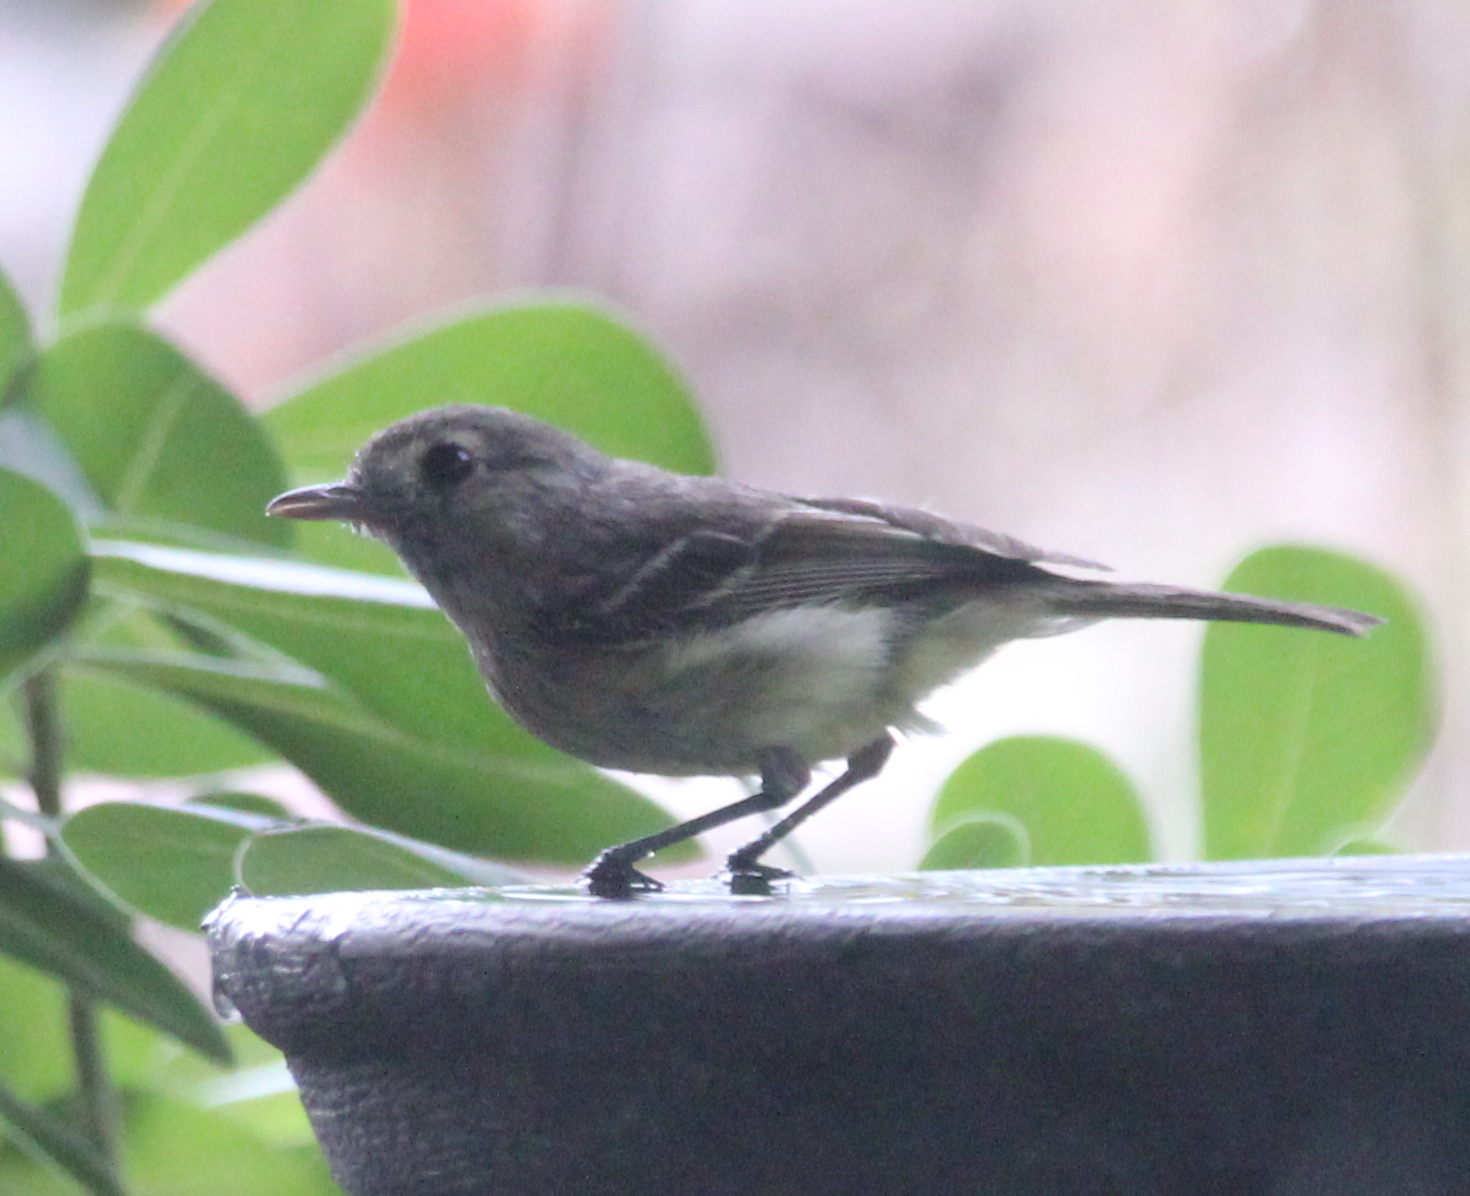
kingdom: Animalia
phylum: Chordata
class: Aves
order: Passeriformes
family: Vireonidae
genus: Vireo
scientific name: Vireo huttoni
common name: Hutton's vireo
